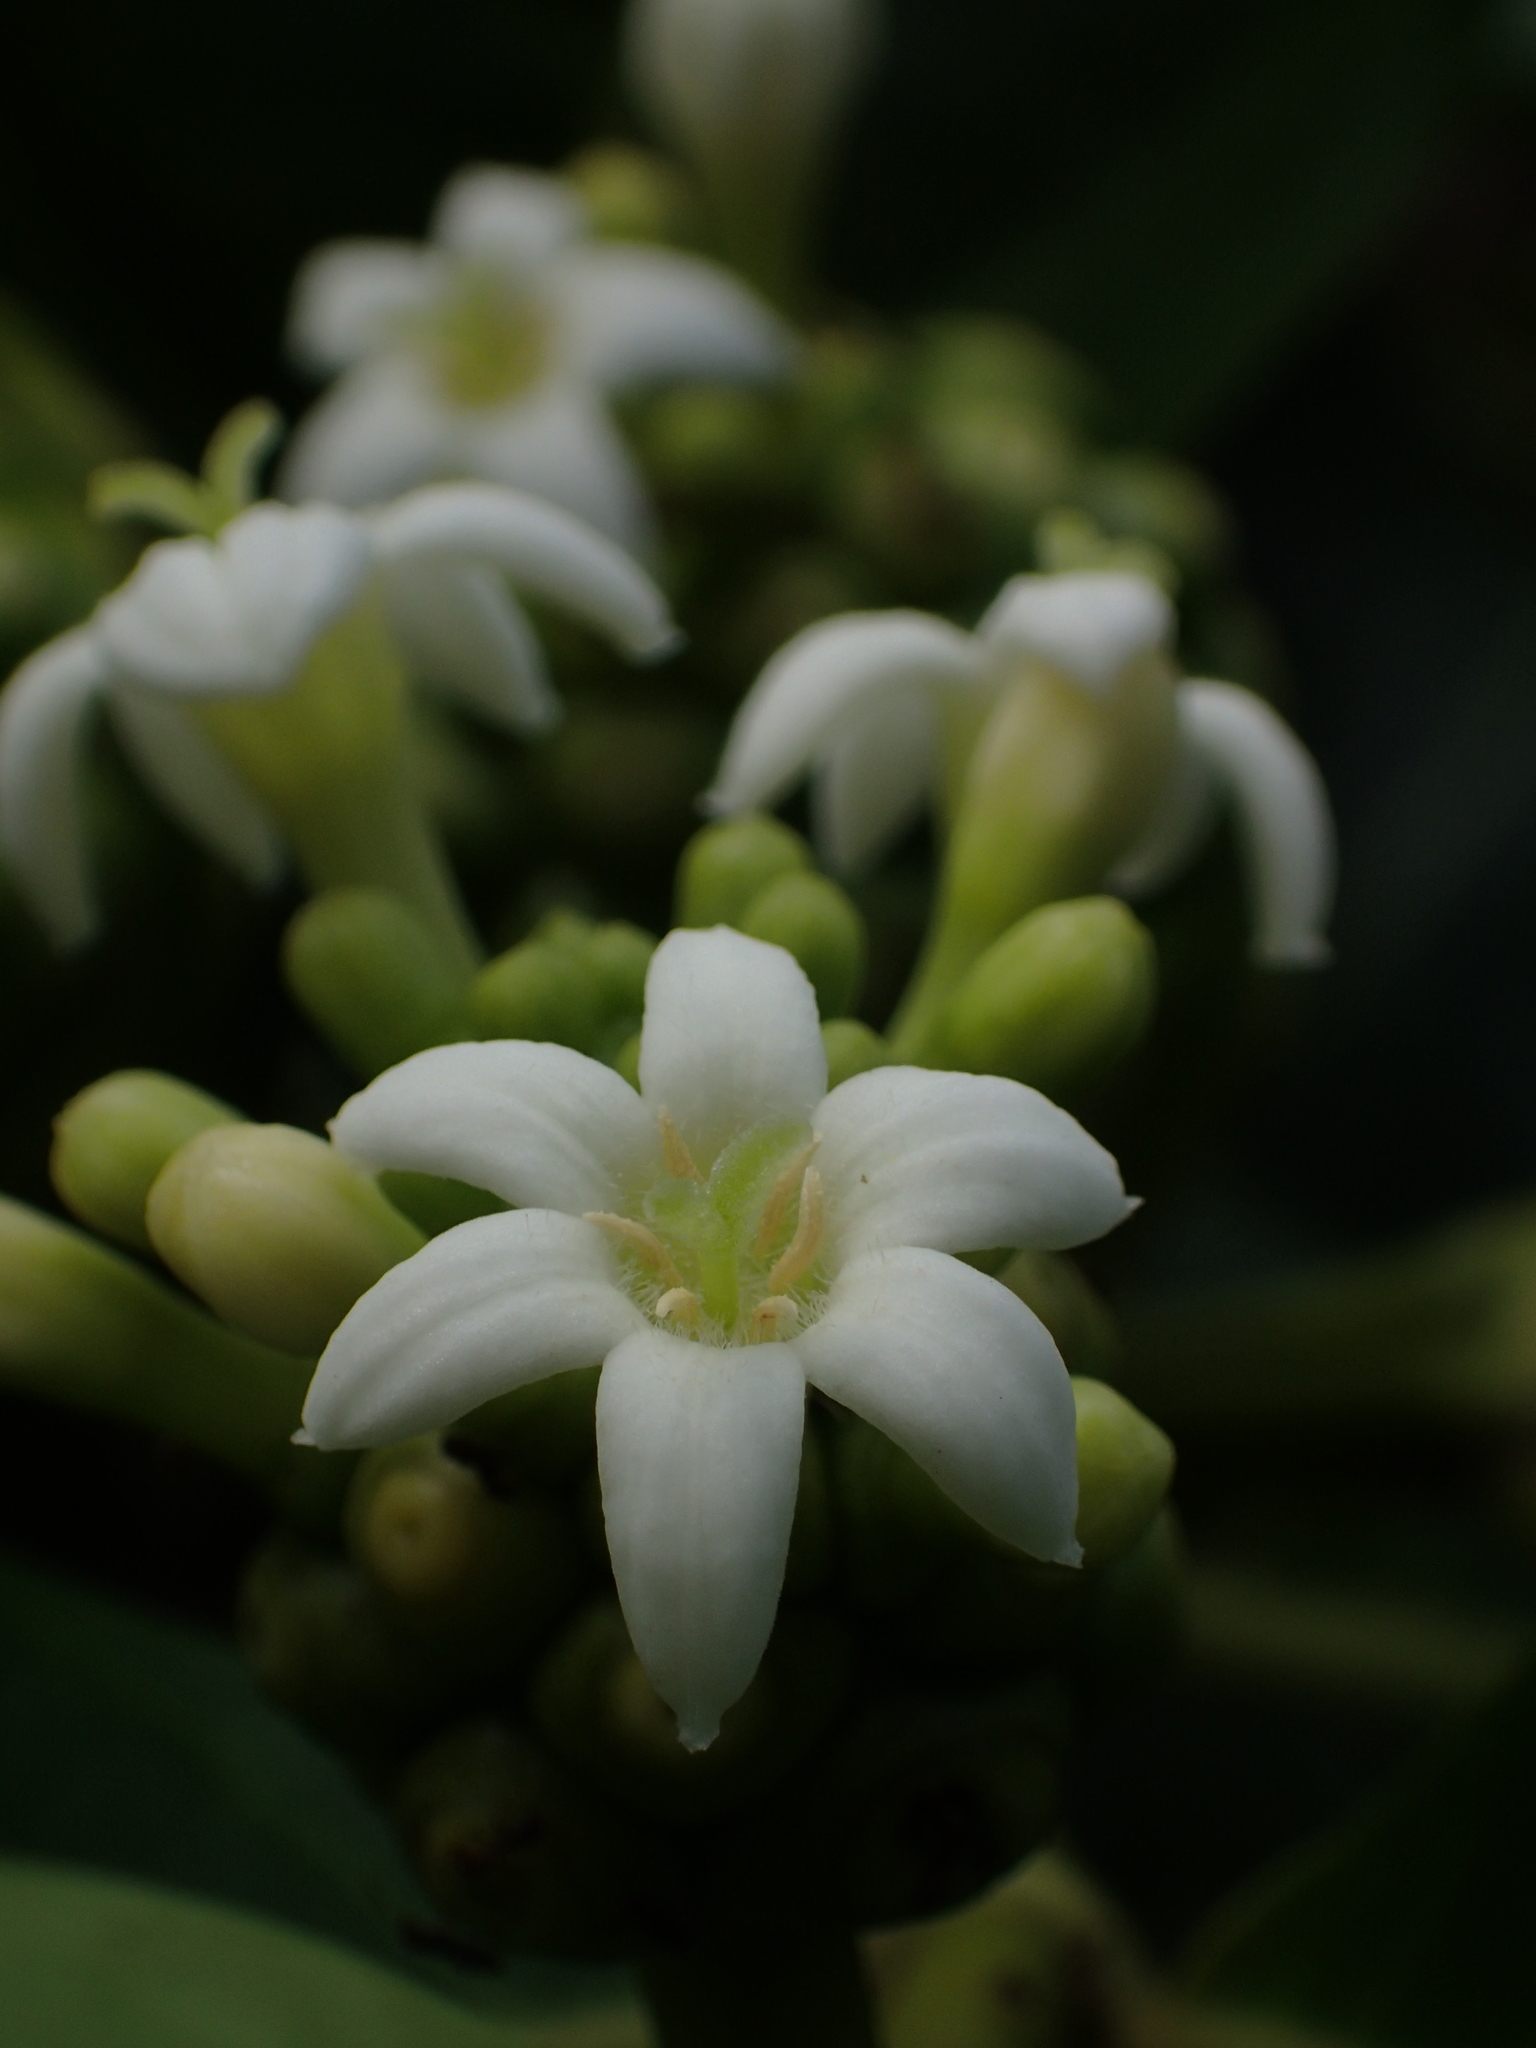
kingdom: Plantae
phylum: Tracheophyta
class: Magnoliopsida
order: Gentianales
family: Rubiaceae
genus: Morinda
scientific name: Morinda citrifolia
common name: Indian-mulberry
